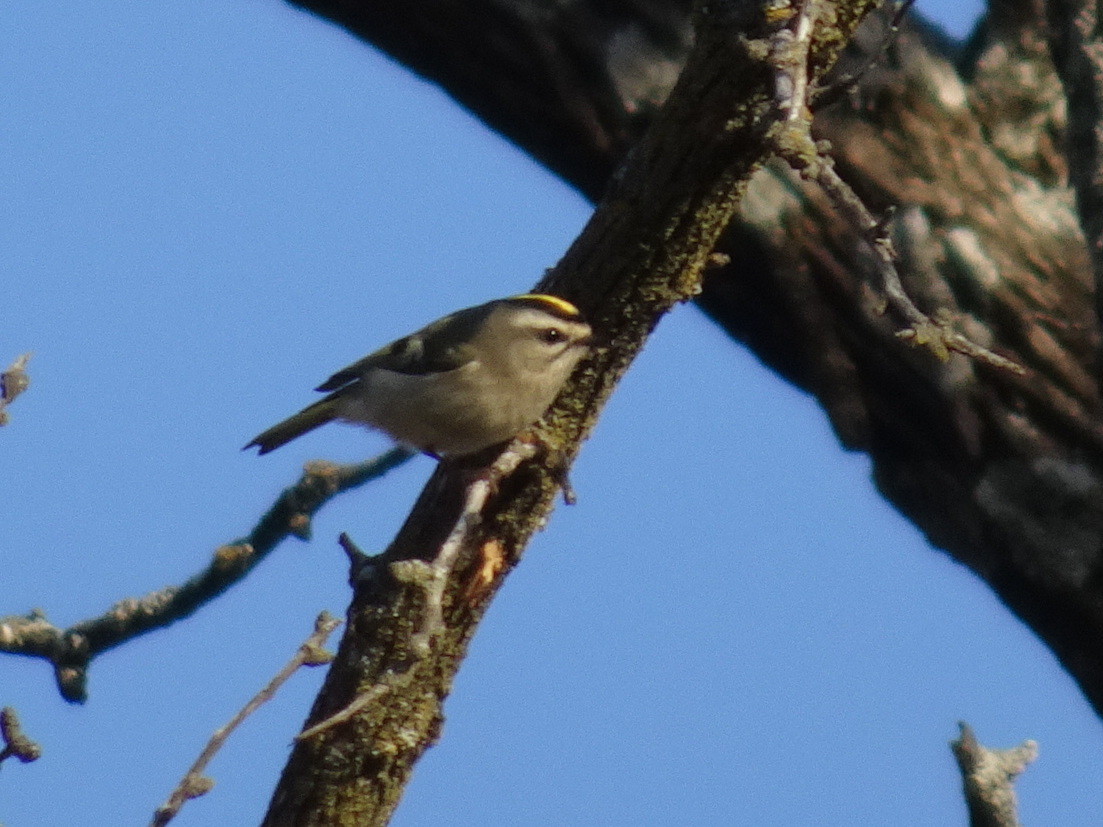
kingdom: Animalia
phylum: Chordata
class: Aves
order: Passeriformes
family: Regulidae
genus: Regulus
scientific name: Regulus satrapa
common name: Golden-crowned kinglet
